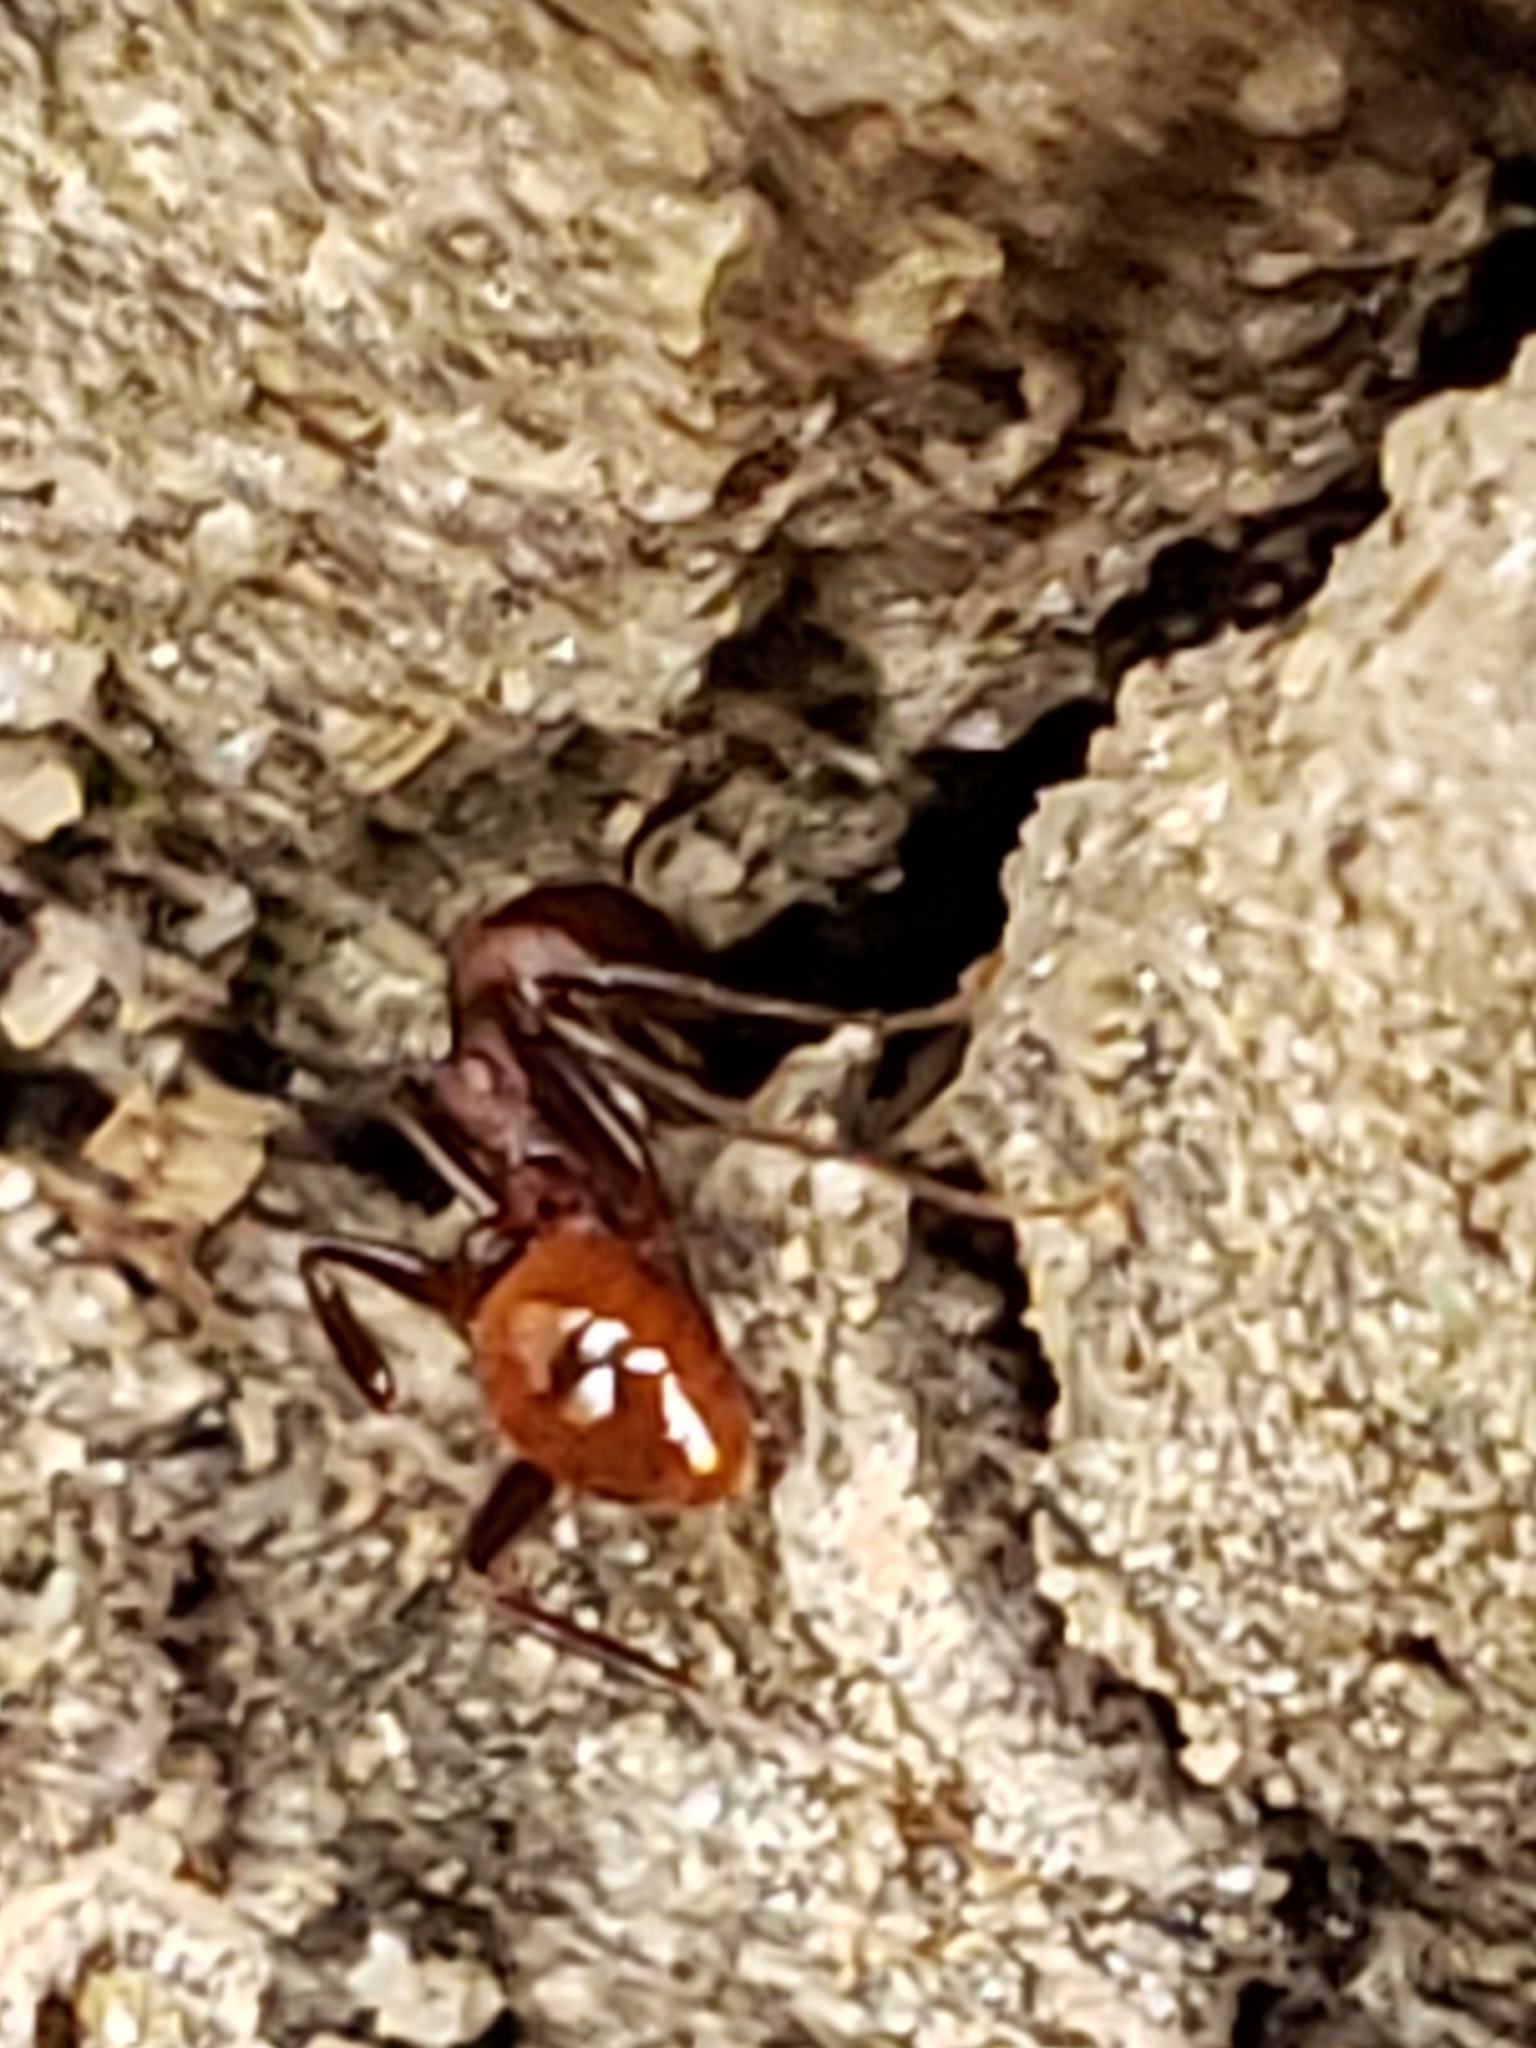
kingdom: Animalia
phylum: Arthropoda
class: Insecta
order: Hymenoptera
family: Formicidae
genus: Aphaenogaster
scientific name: Aphaenogaster tennesseensis
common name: Tennessee thread-waisted ant
